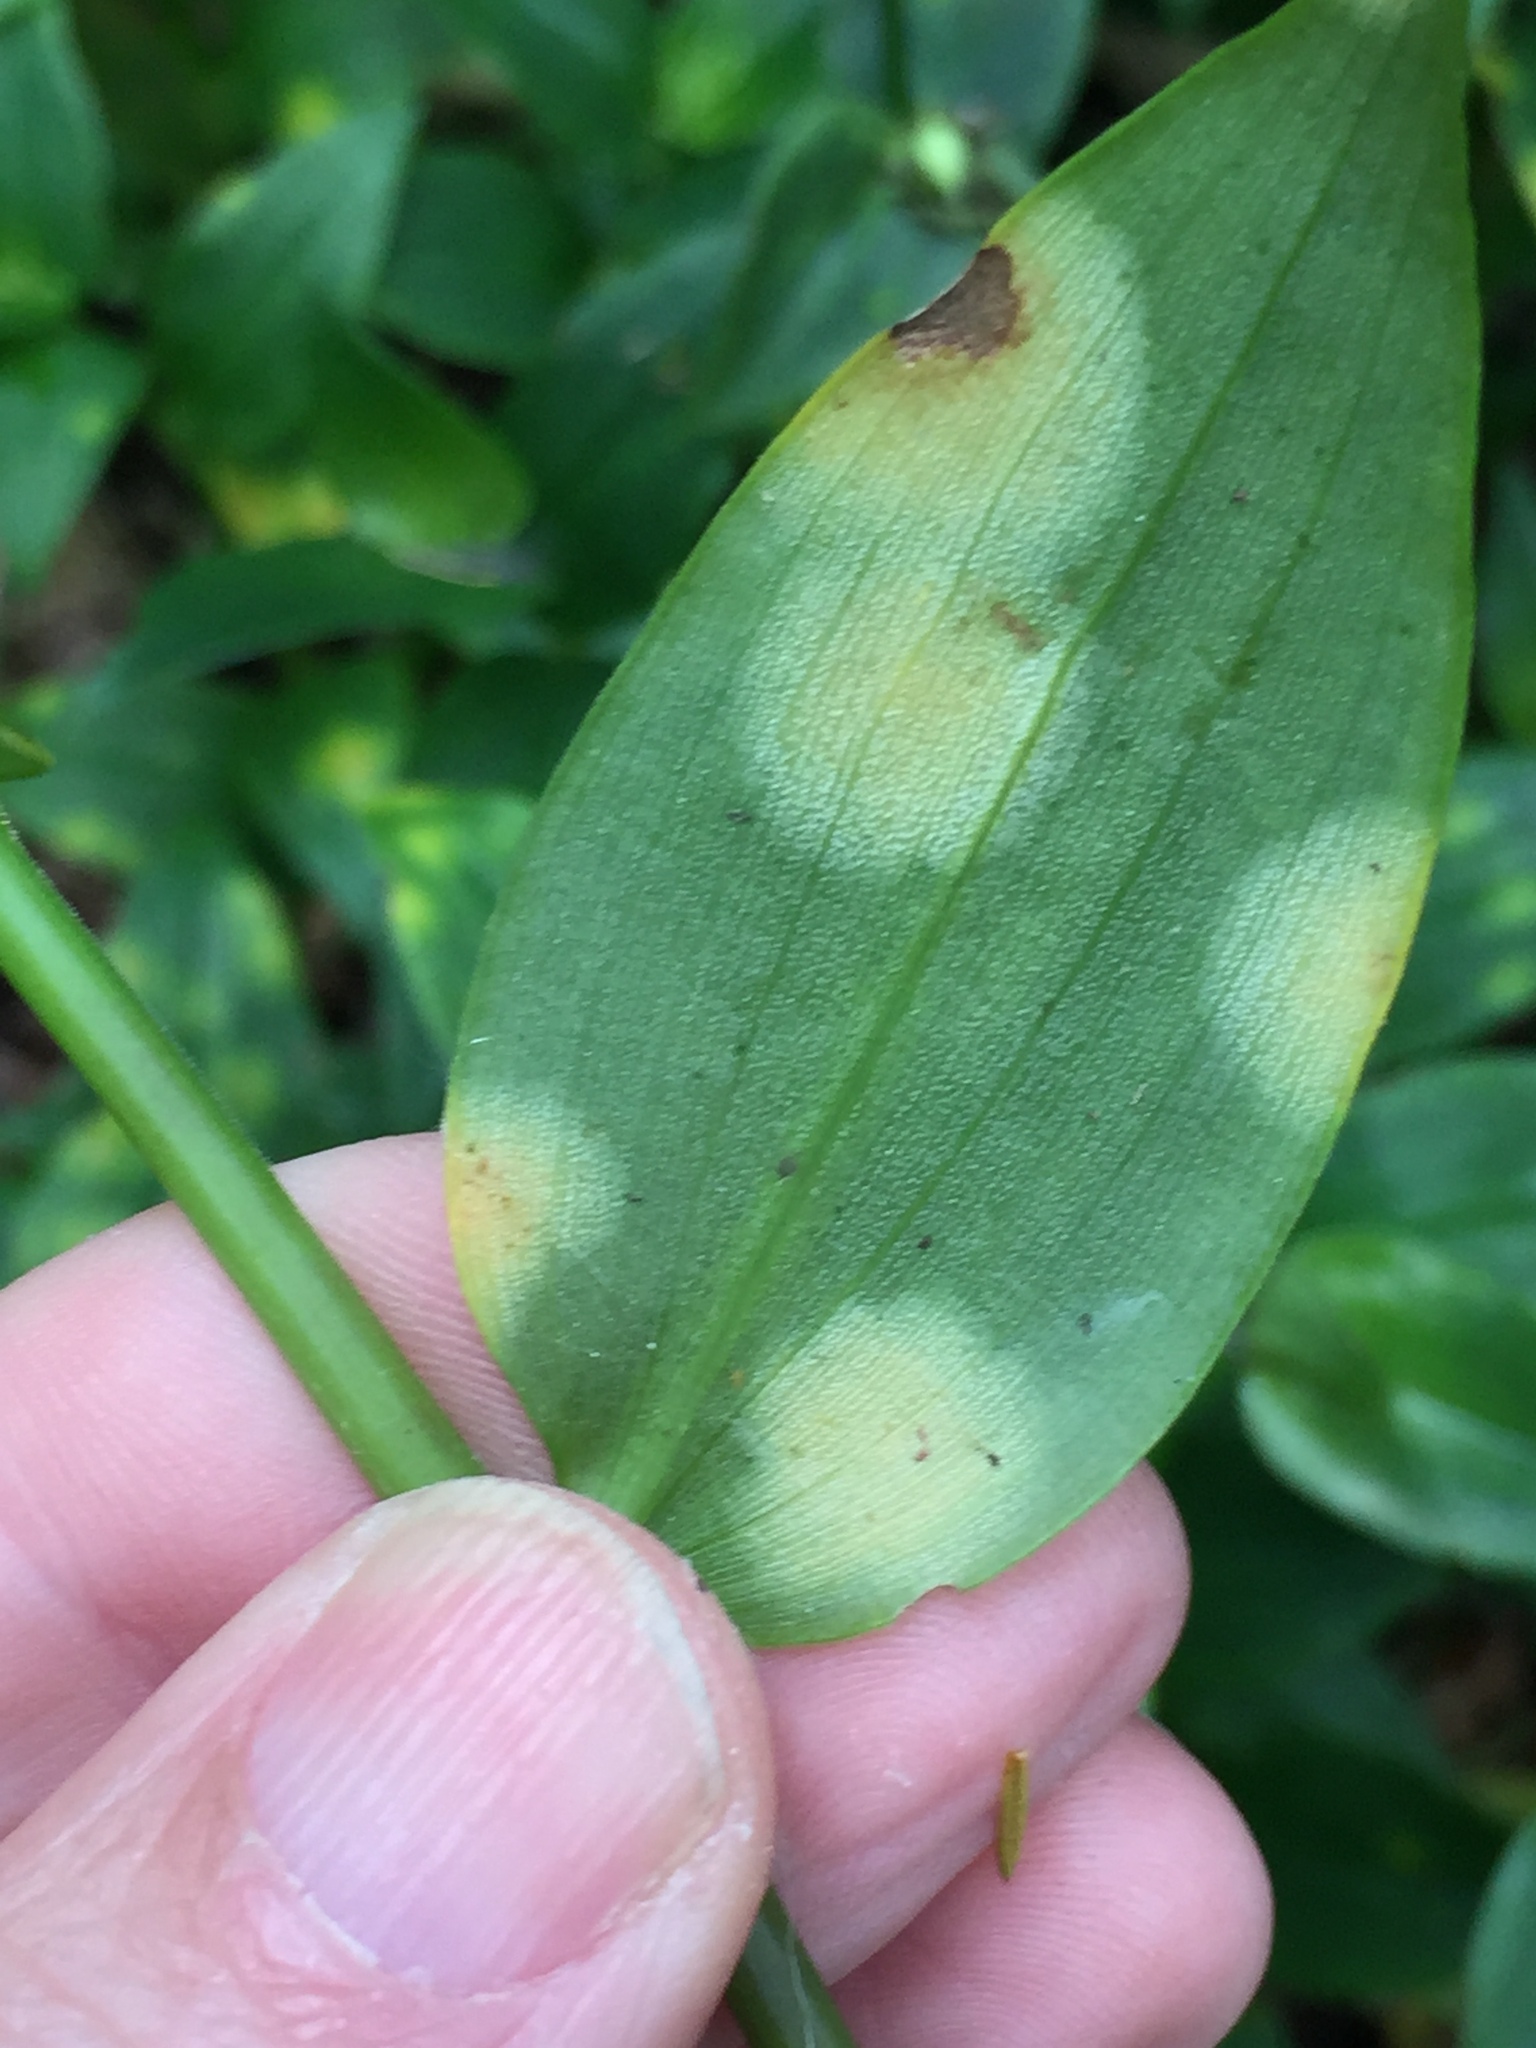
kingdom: Fungi
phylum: Basidiomycota
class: Exobasidiomycetes
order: Exobasidiales
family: Brachybasidiaceae
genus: Kordyana
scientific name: Kordyana brasiliensis
